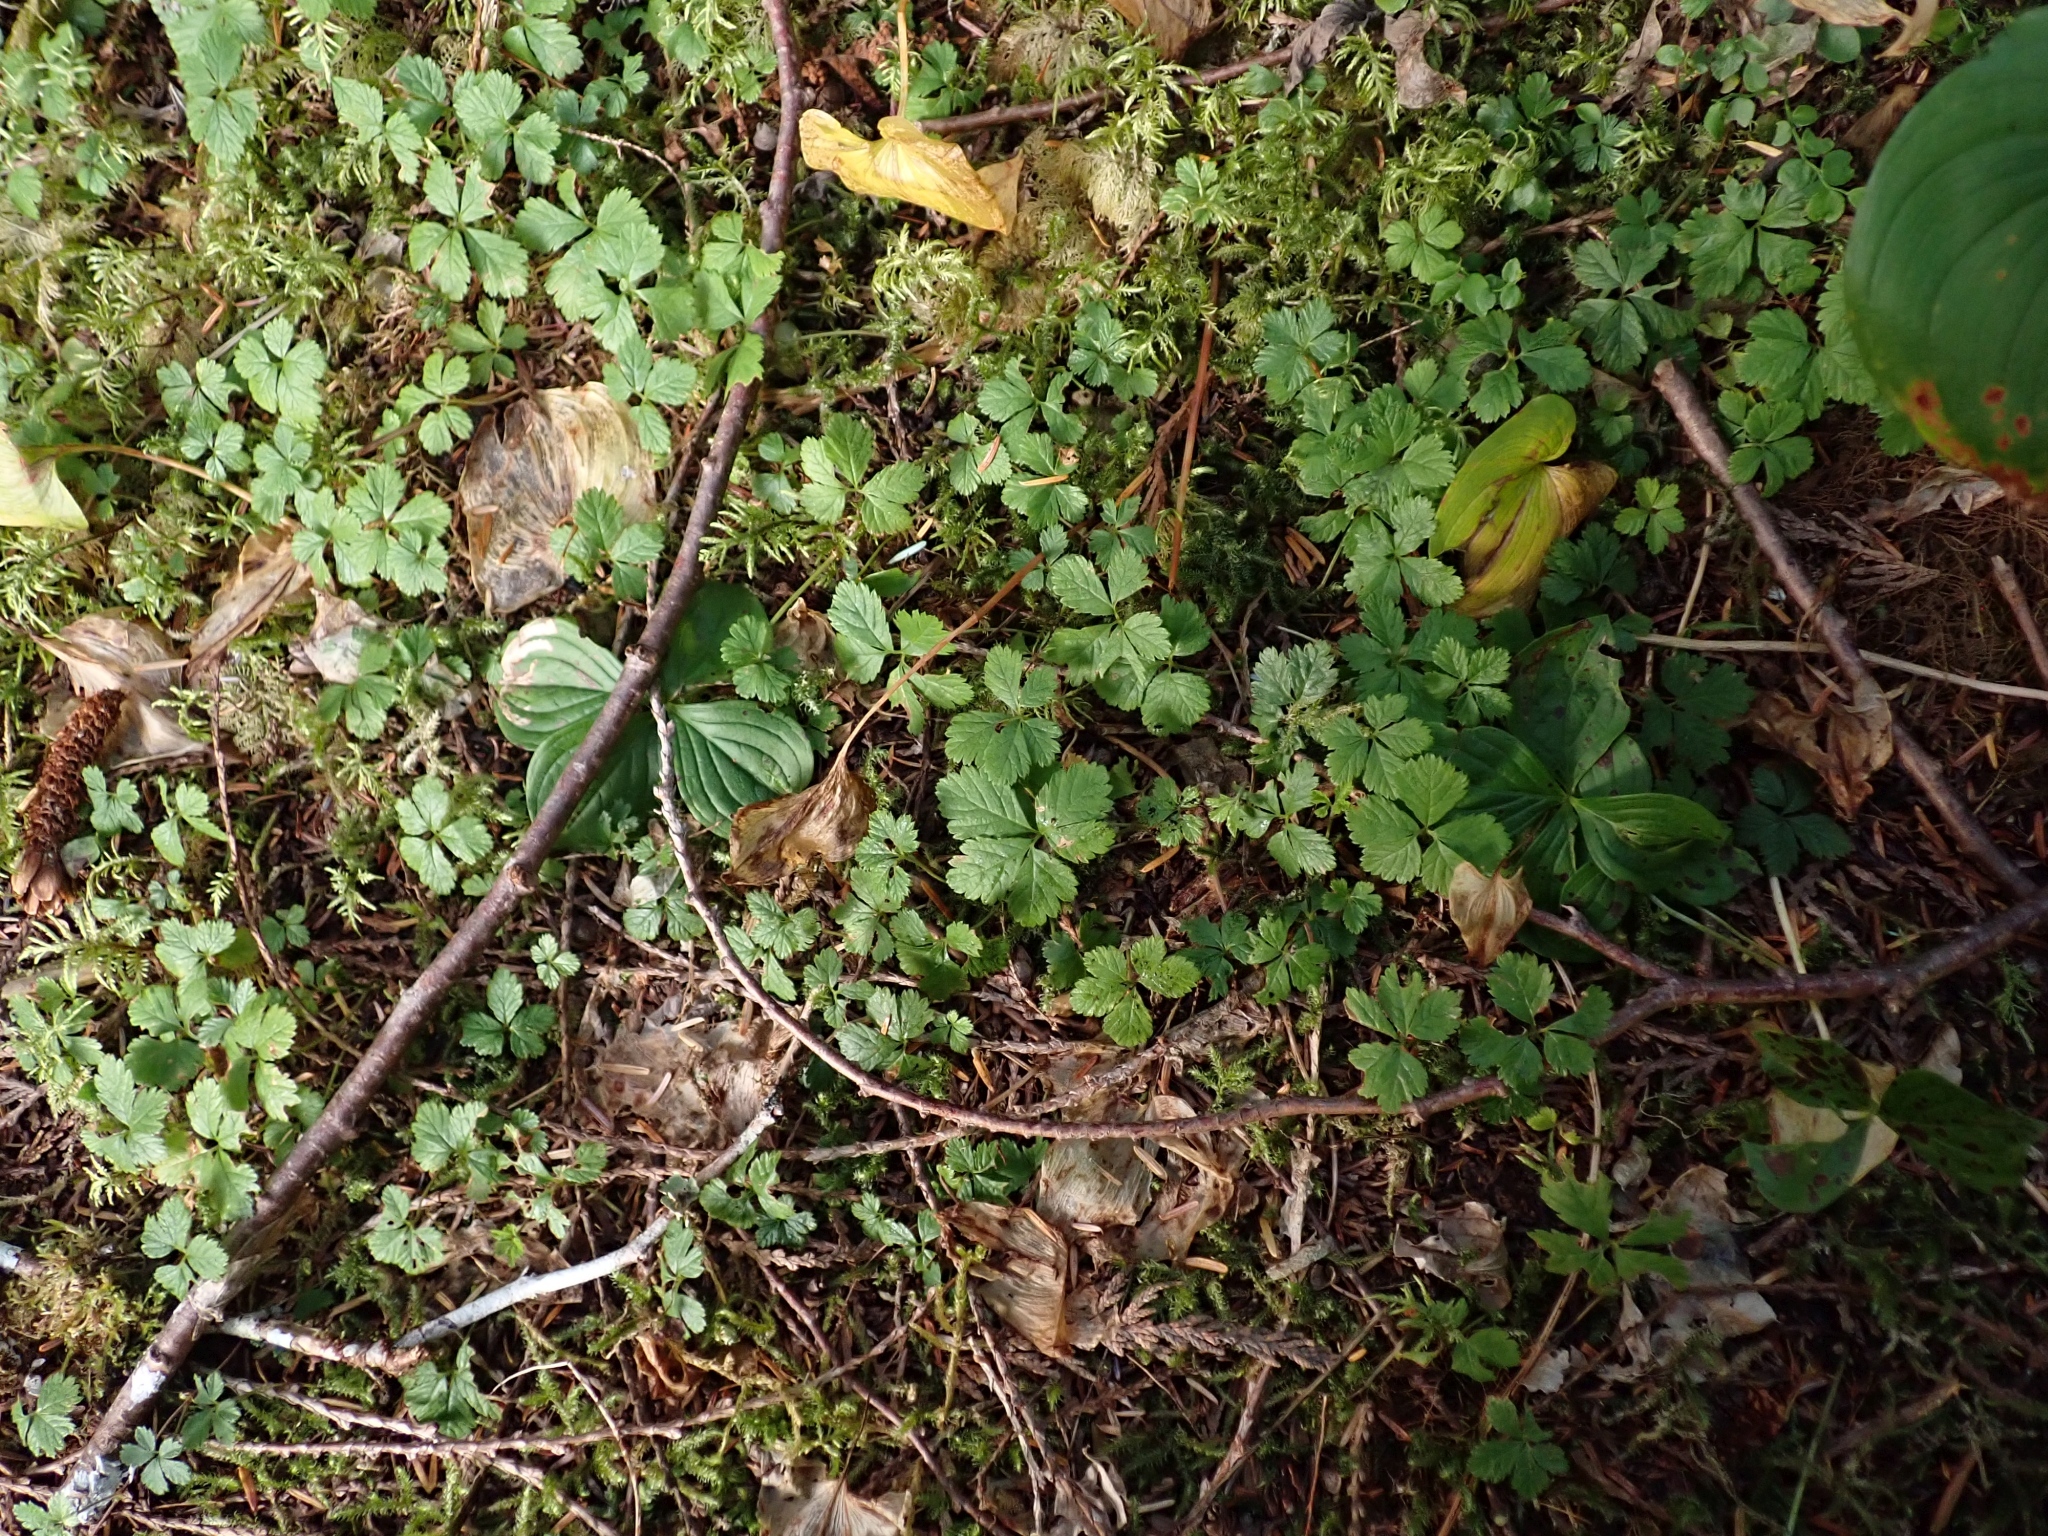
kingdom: Plantae
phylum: Tracheophyta
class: Magnoliopsida
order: Rosales
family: Rosaceae
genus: Rubus
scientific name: Rubus pedatus
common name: Creeping raspberry
